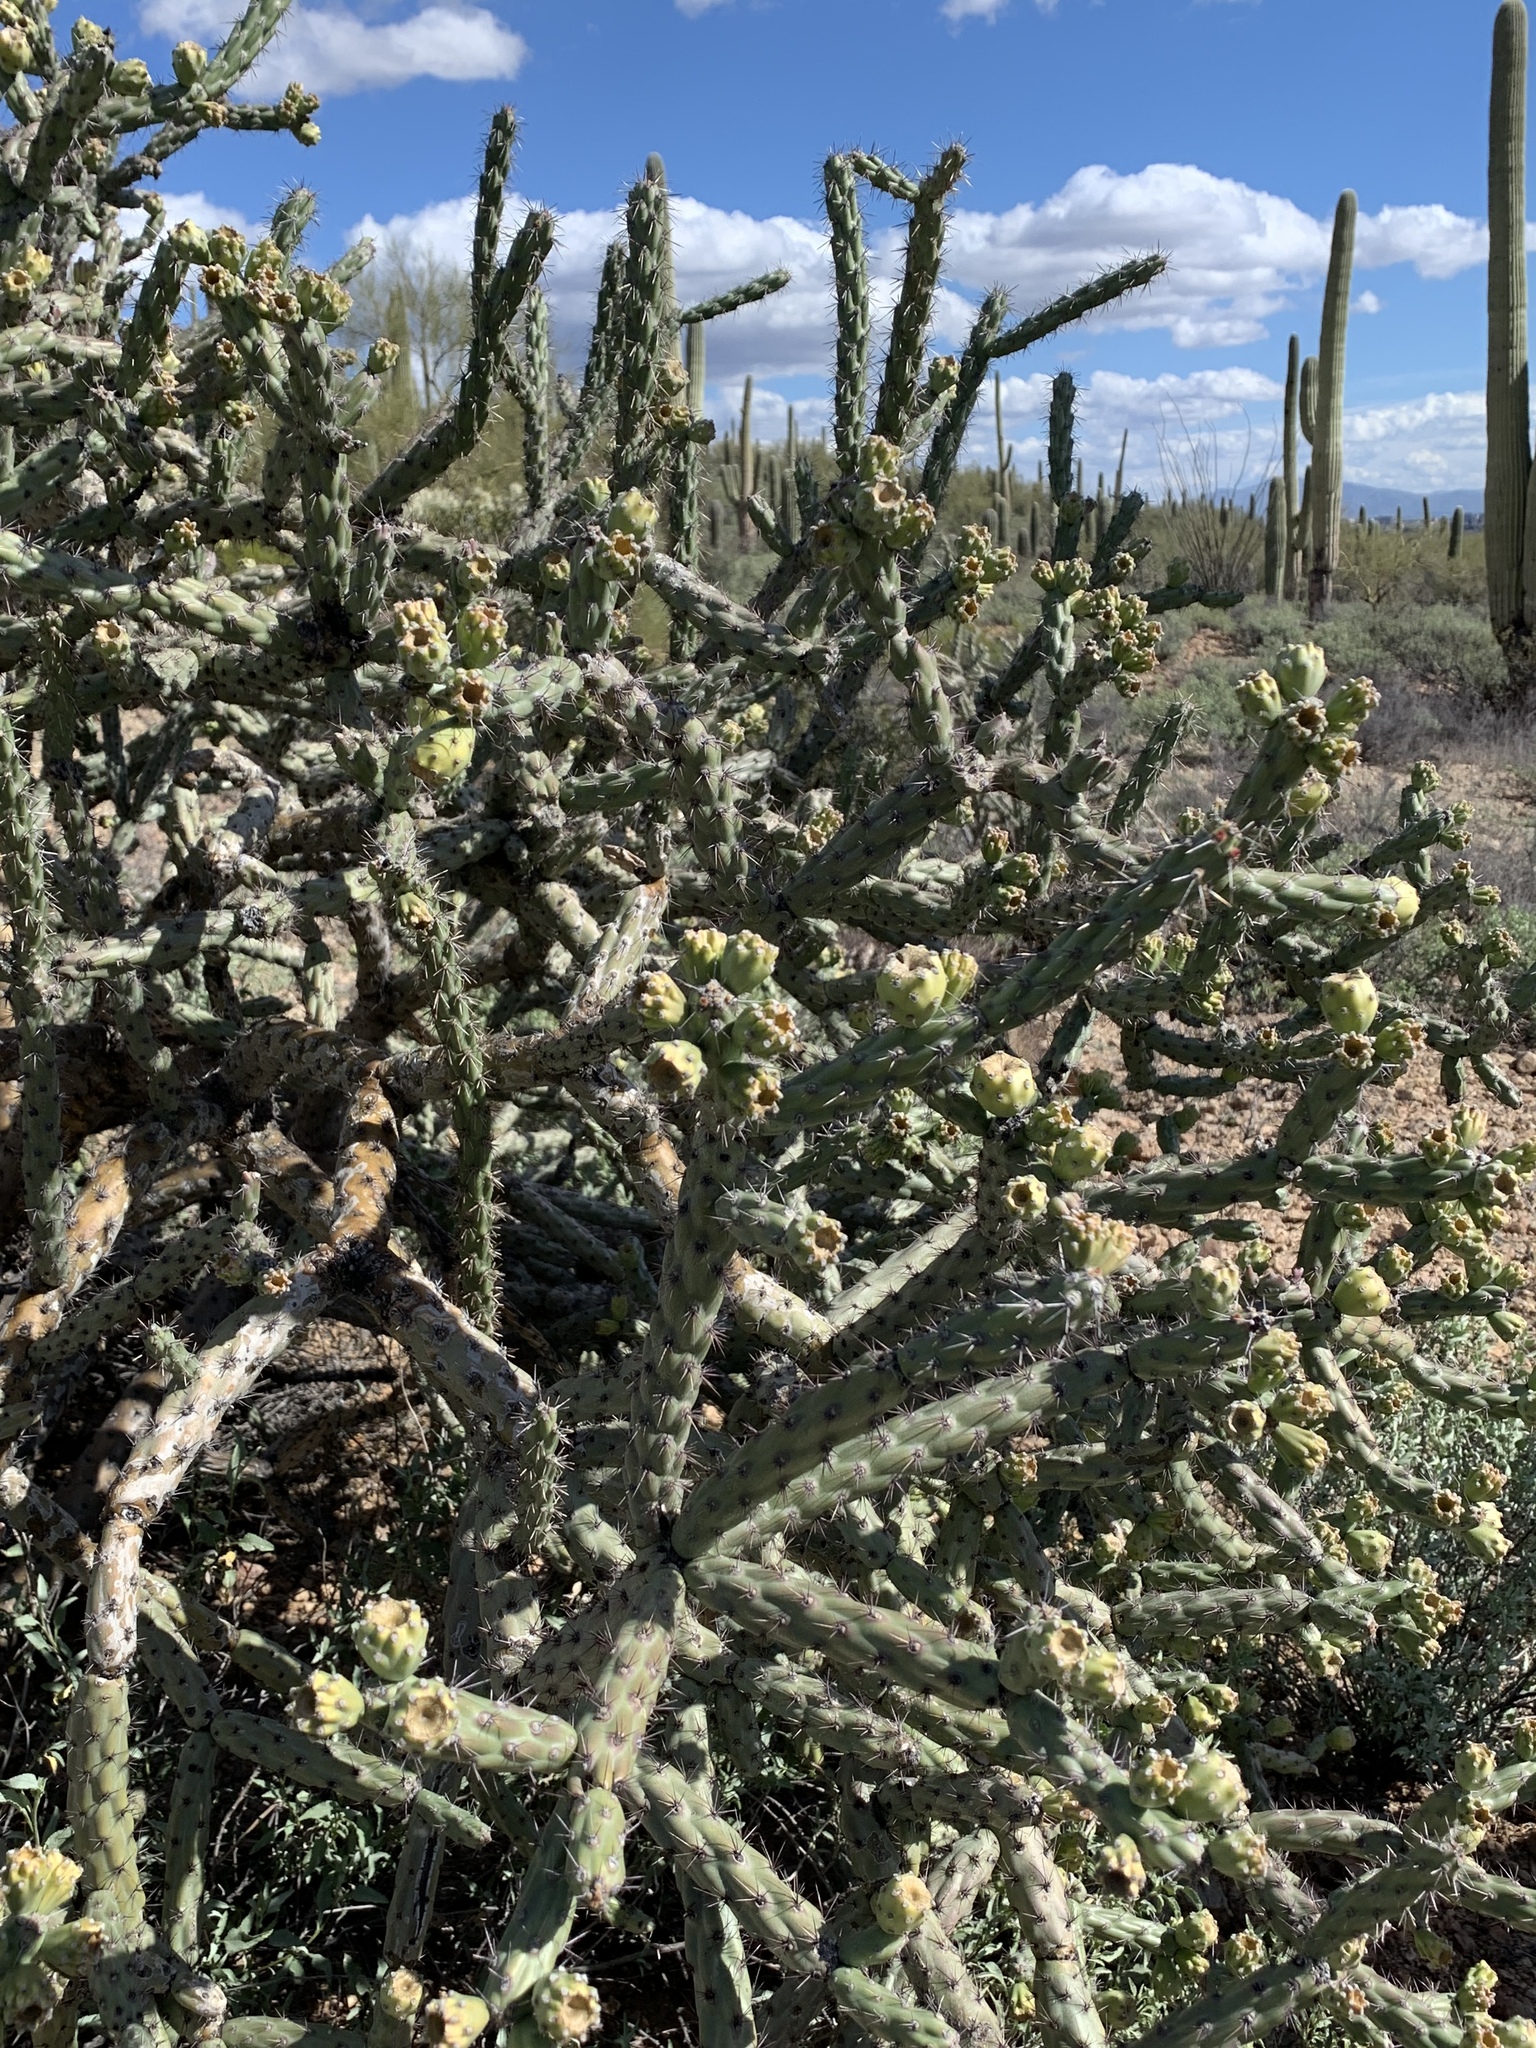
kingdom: Plantae
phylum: Tracheophyta
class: Magnoliopsida
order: Caryophyllales
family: Cactaceae
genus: Cylindropuntia
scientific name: Cylindropuntia thurberi
